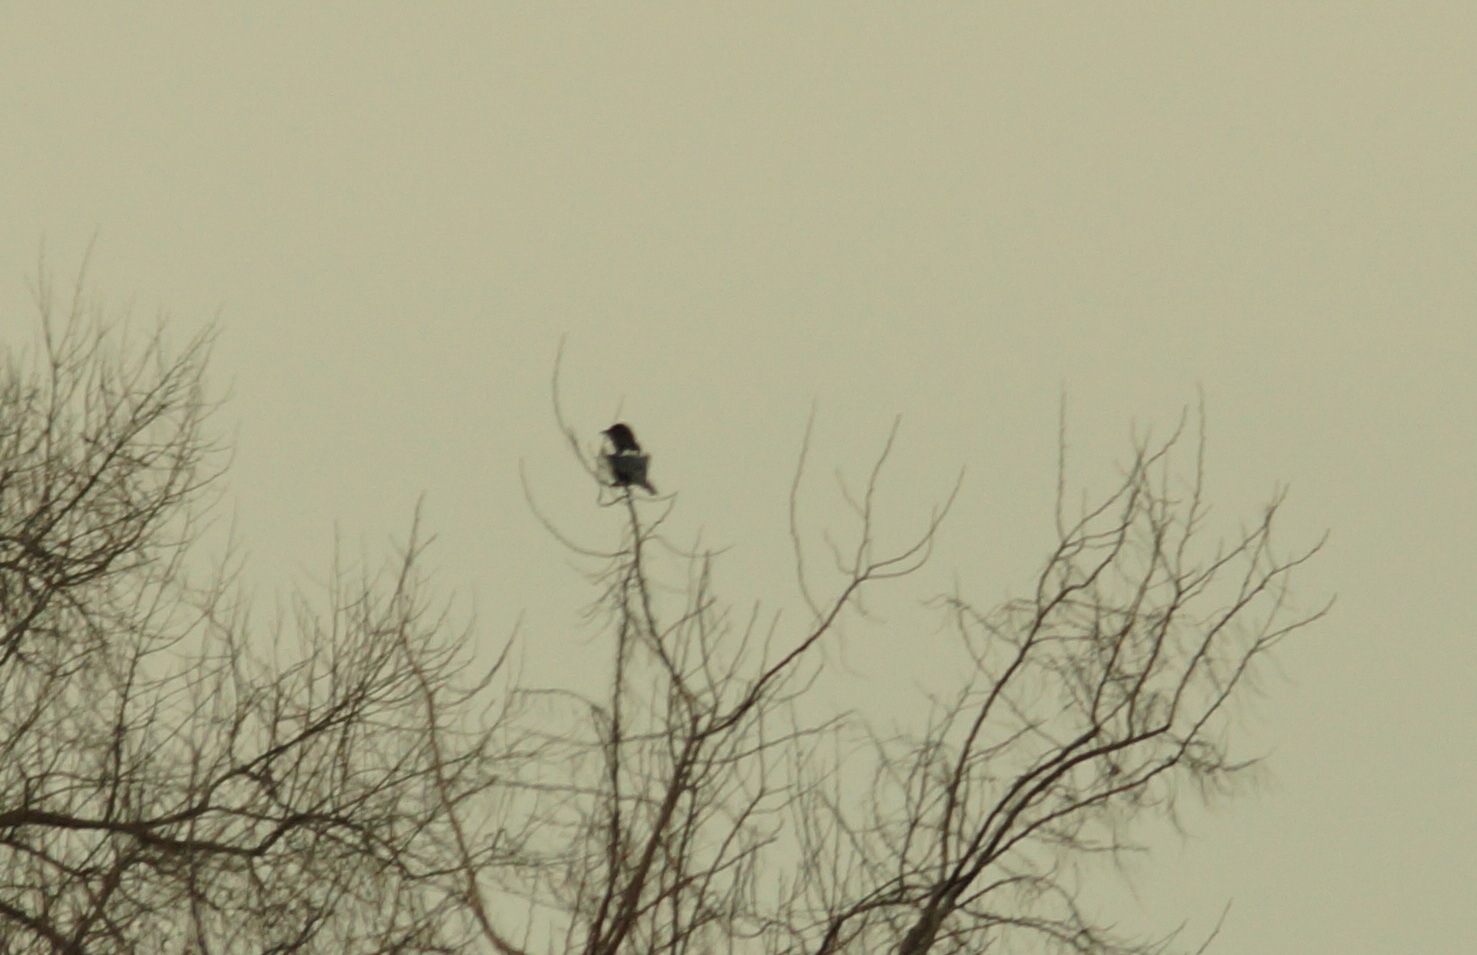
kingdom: Animalia
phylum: Chordata
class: Aves
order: Passeriformes
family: Corvidae
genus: Pica
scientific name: Pica pica
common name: Eurasian magpie
